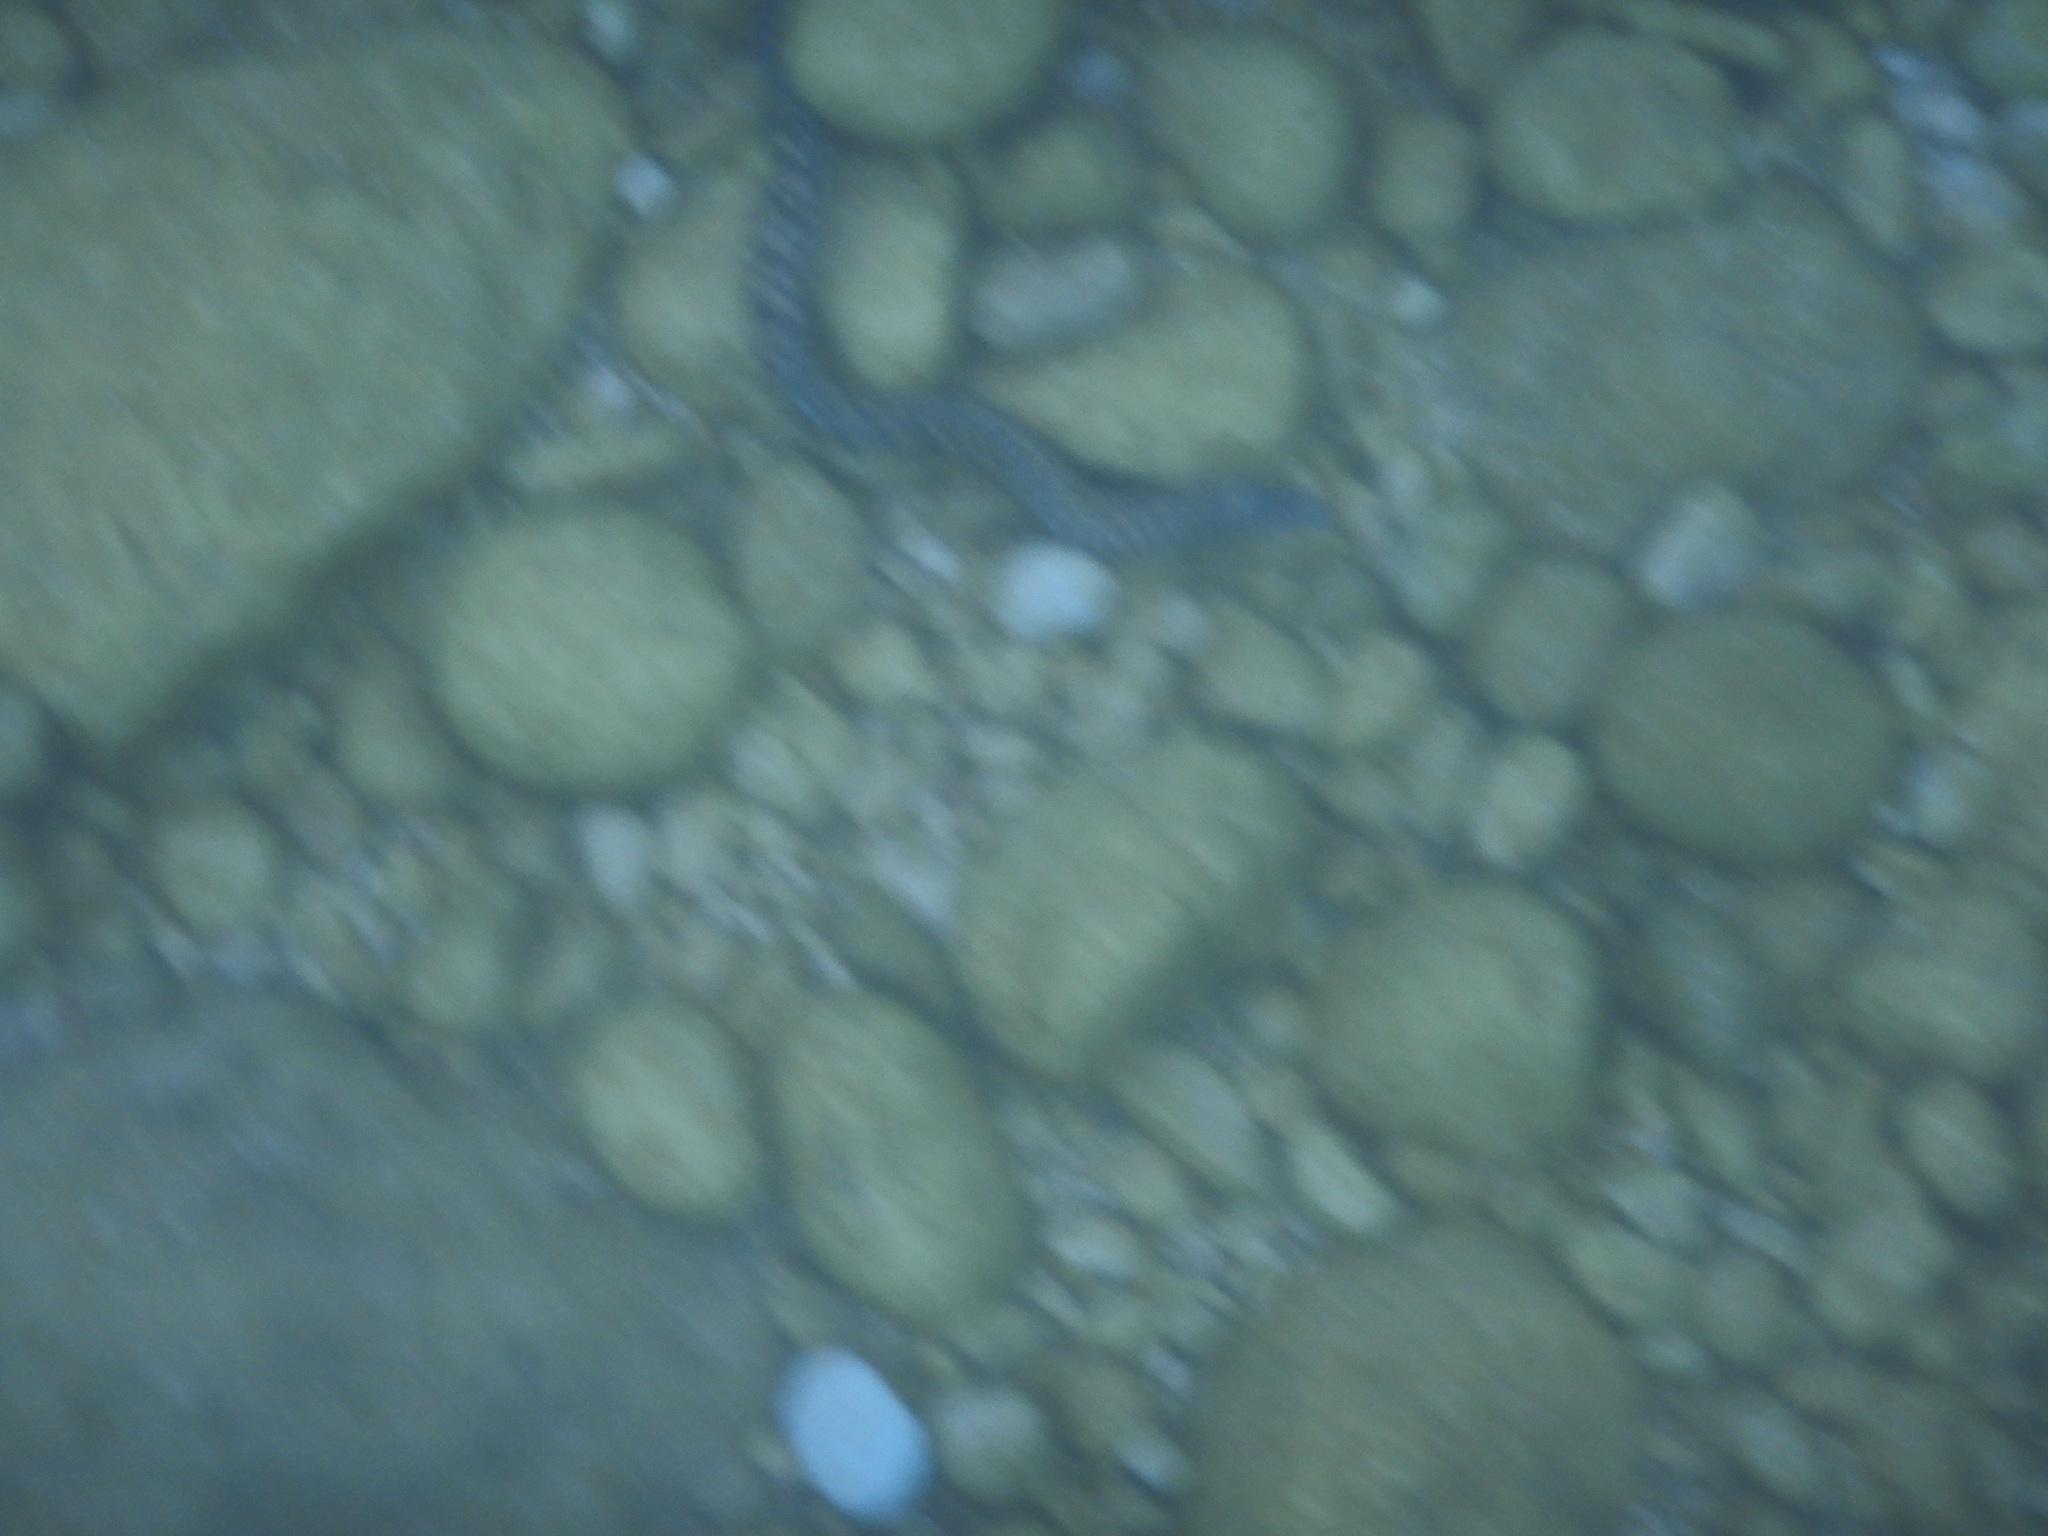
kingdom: Animalia
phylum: Chordata
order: Anguilliformes
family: Muraenidae
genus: Muraena
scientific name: Muraena helena
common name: Mediterranean moray
